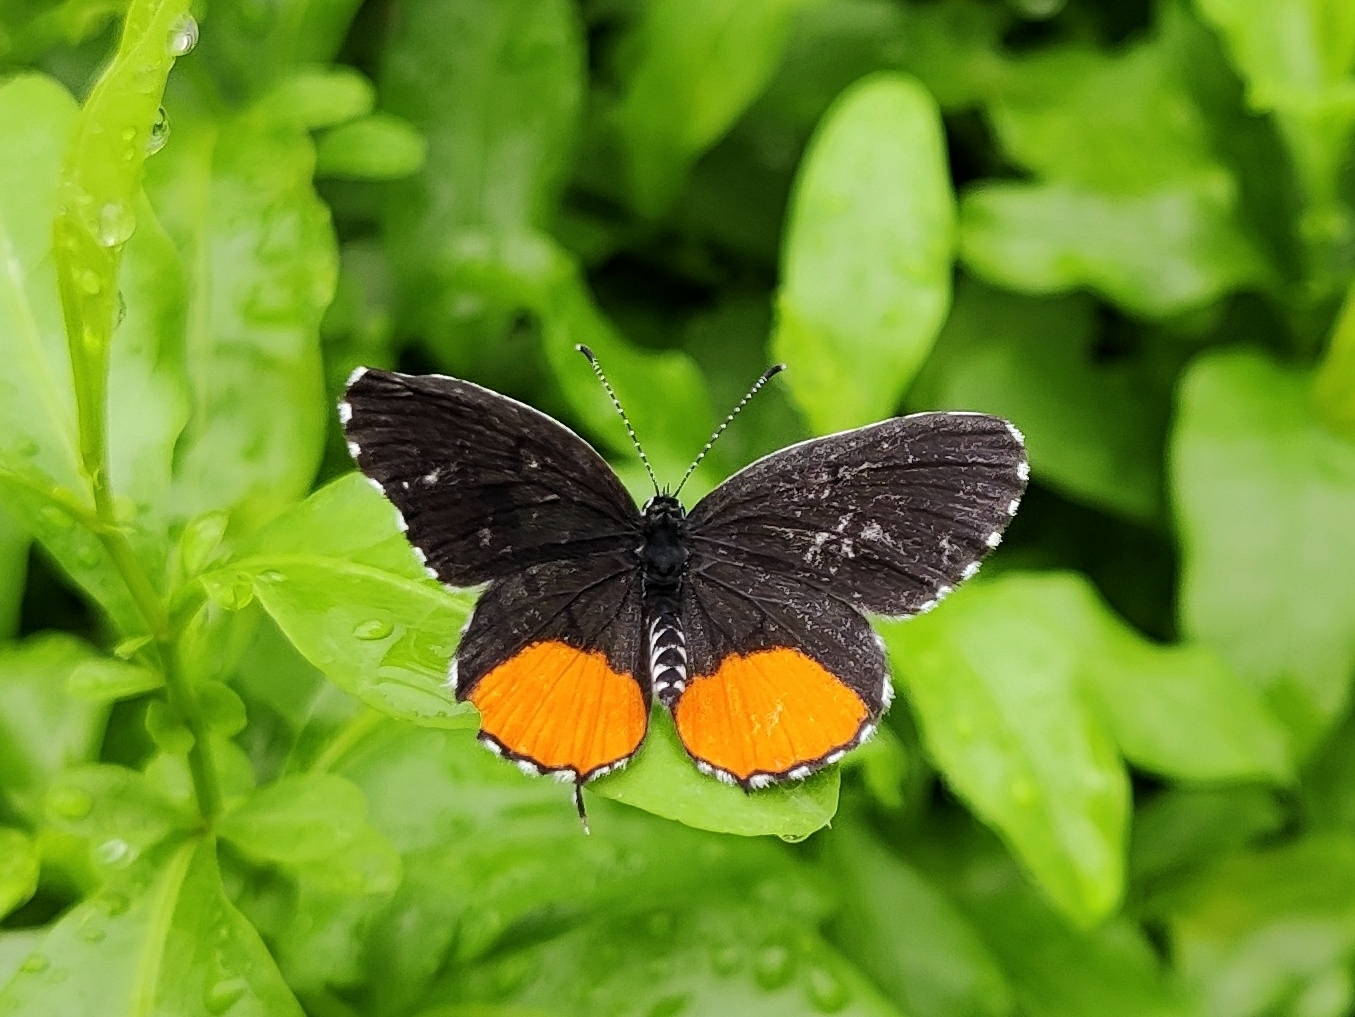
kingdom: Animalia
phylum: Arthropoda
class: Insecta
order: Lepidoptera
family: Lycaenidae
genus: Talicada
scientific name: Talicada nyseus
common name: Red pierrot
